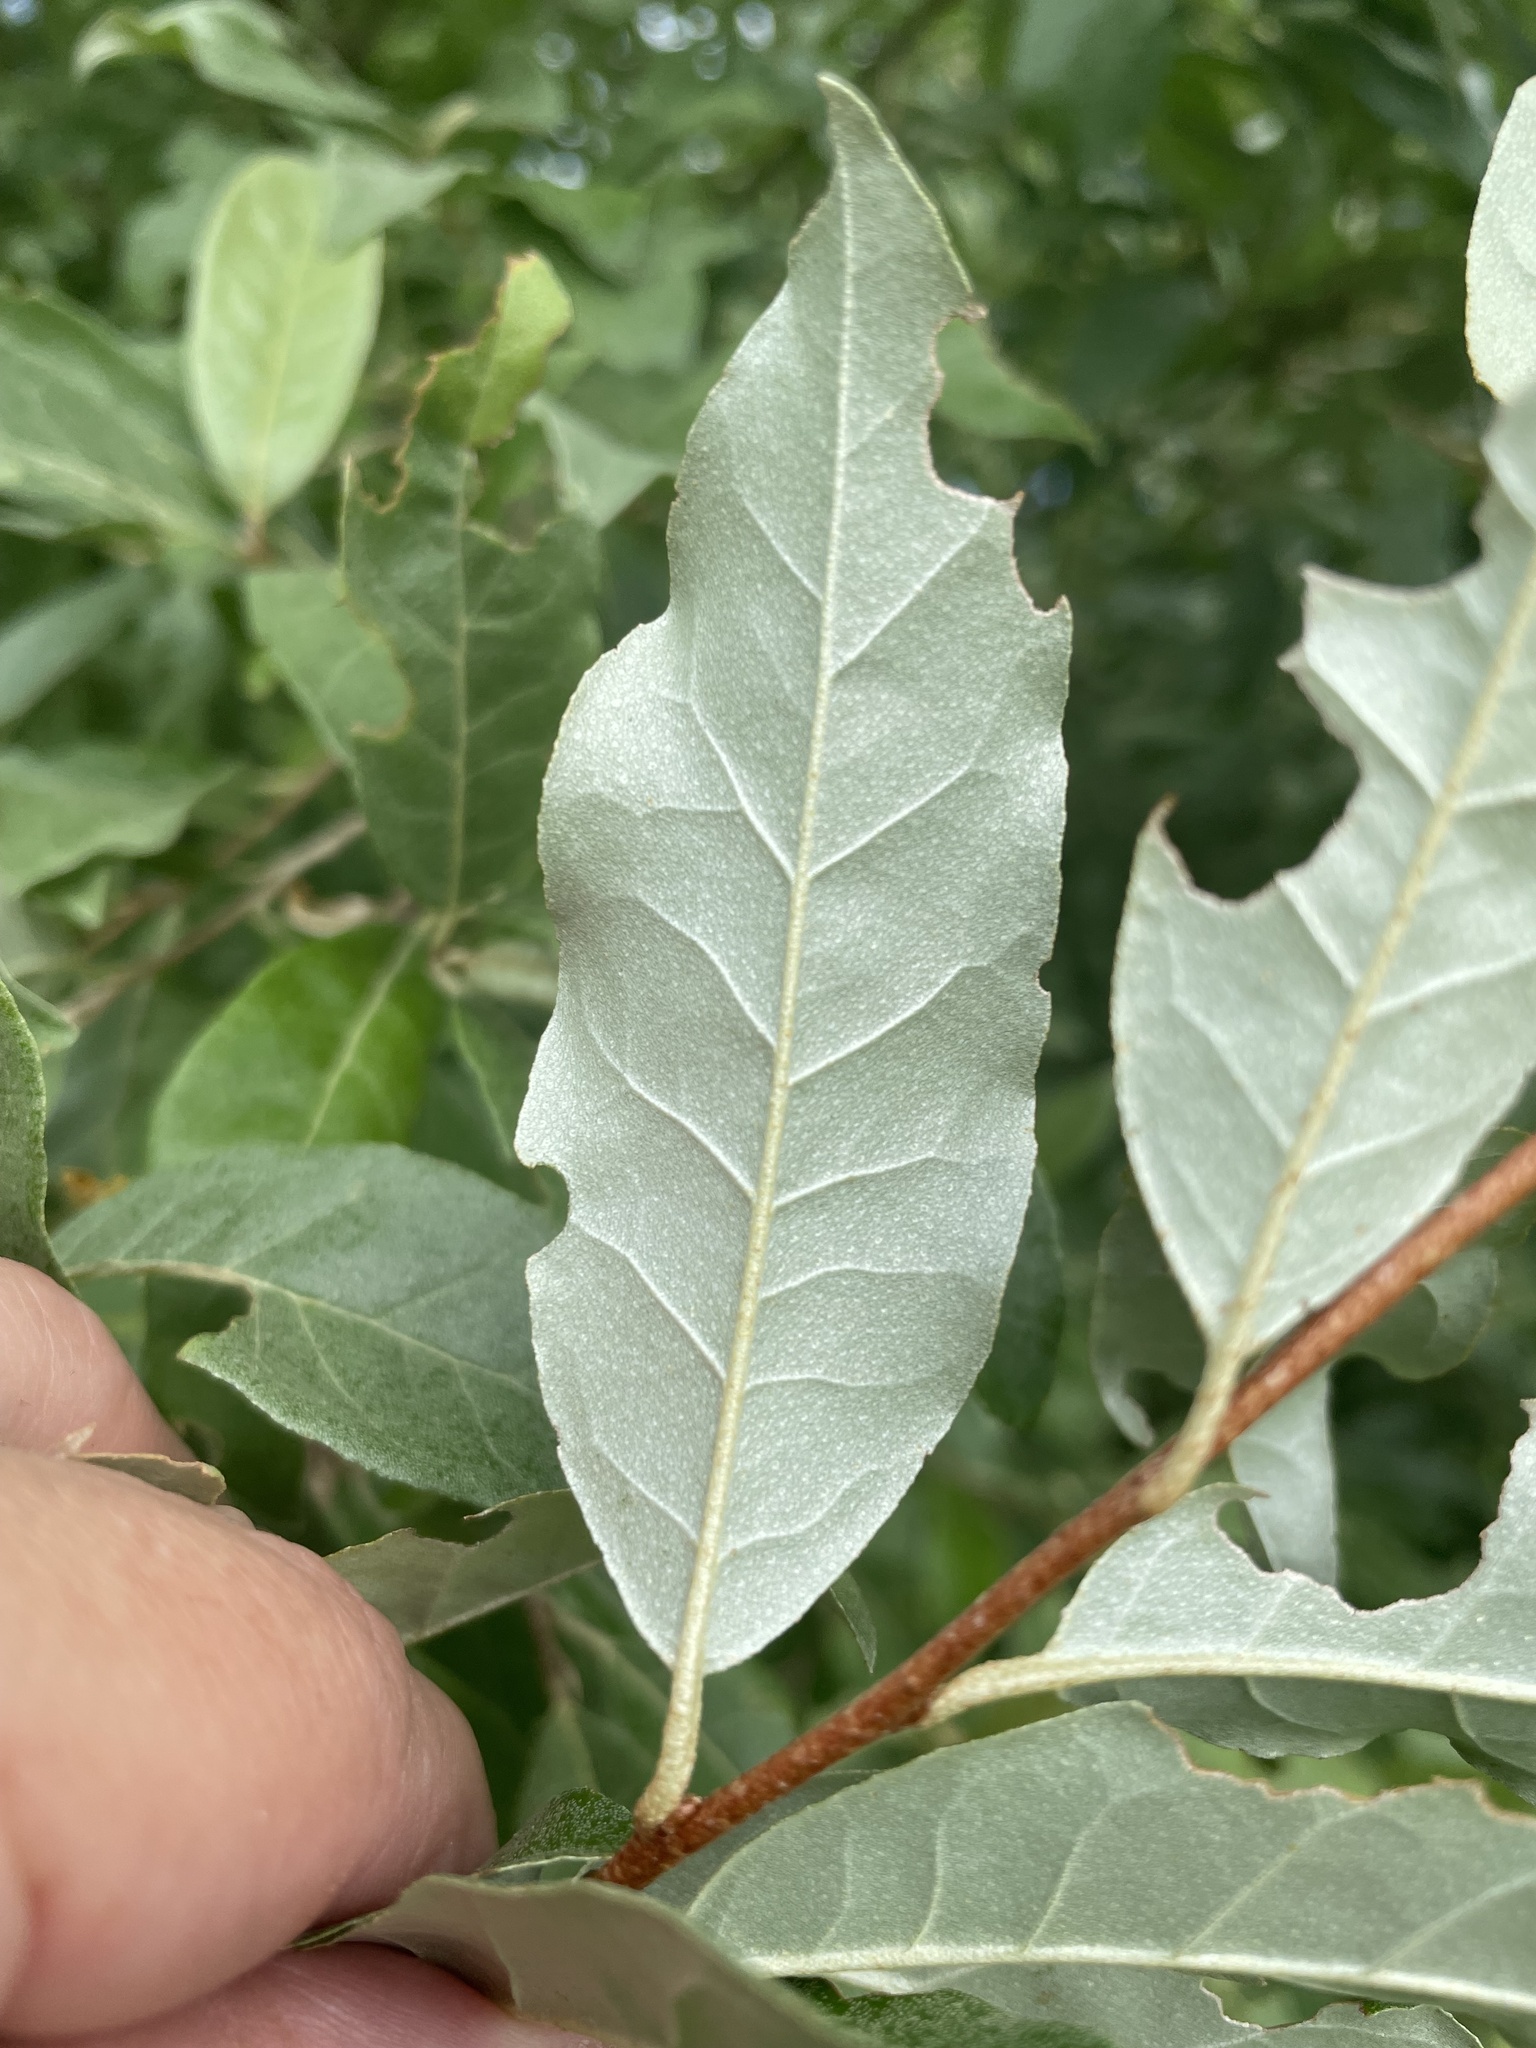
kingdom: Plantae
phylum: Tracheophyta
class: Magnoliopsida
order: Rosales
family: Elaeagnaceae
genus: Elaeagnus
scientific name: Elaeagnus umbellata
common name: Autumn olive
